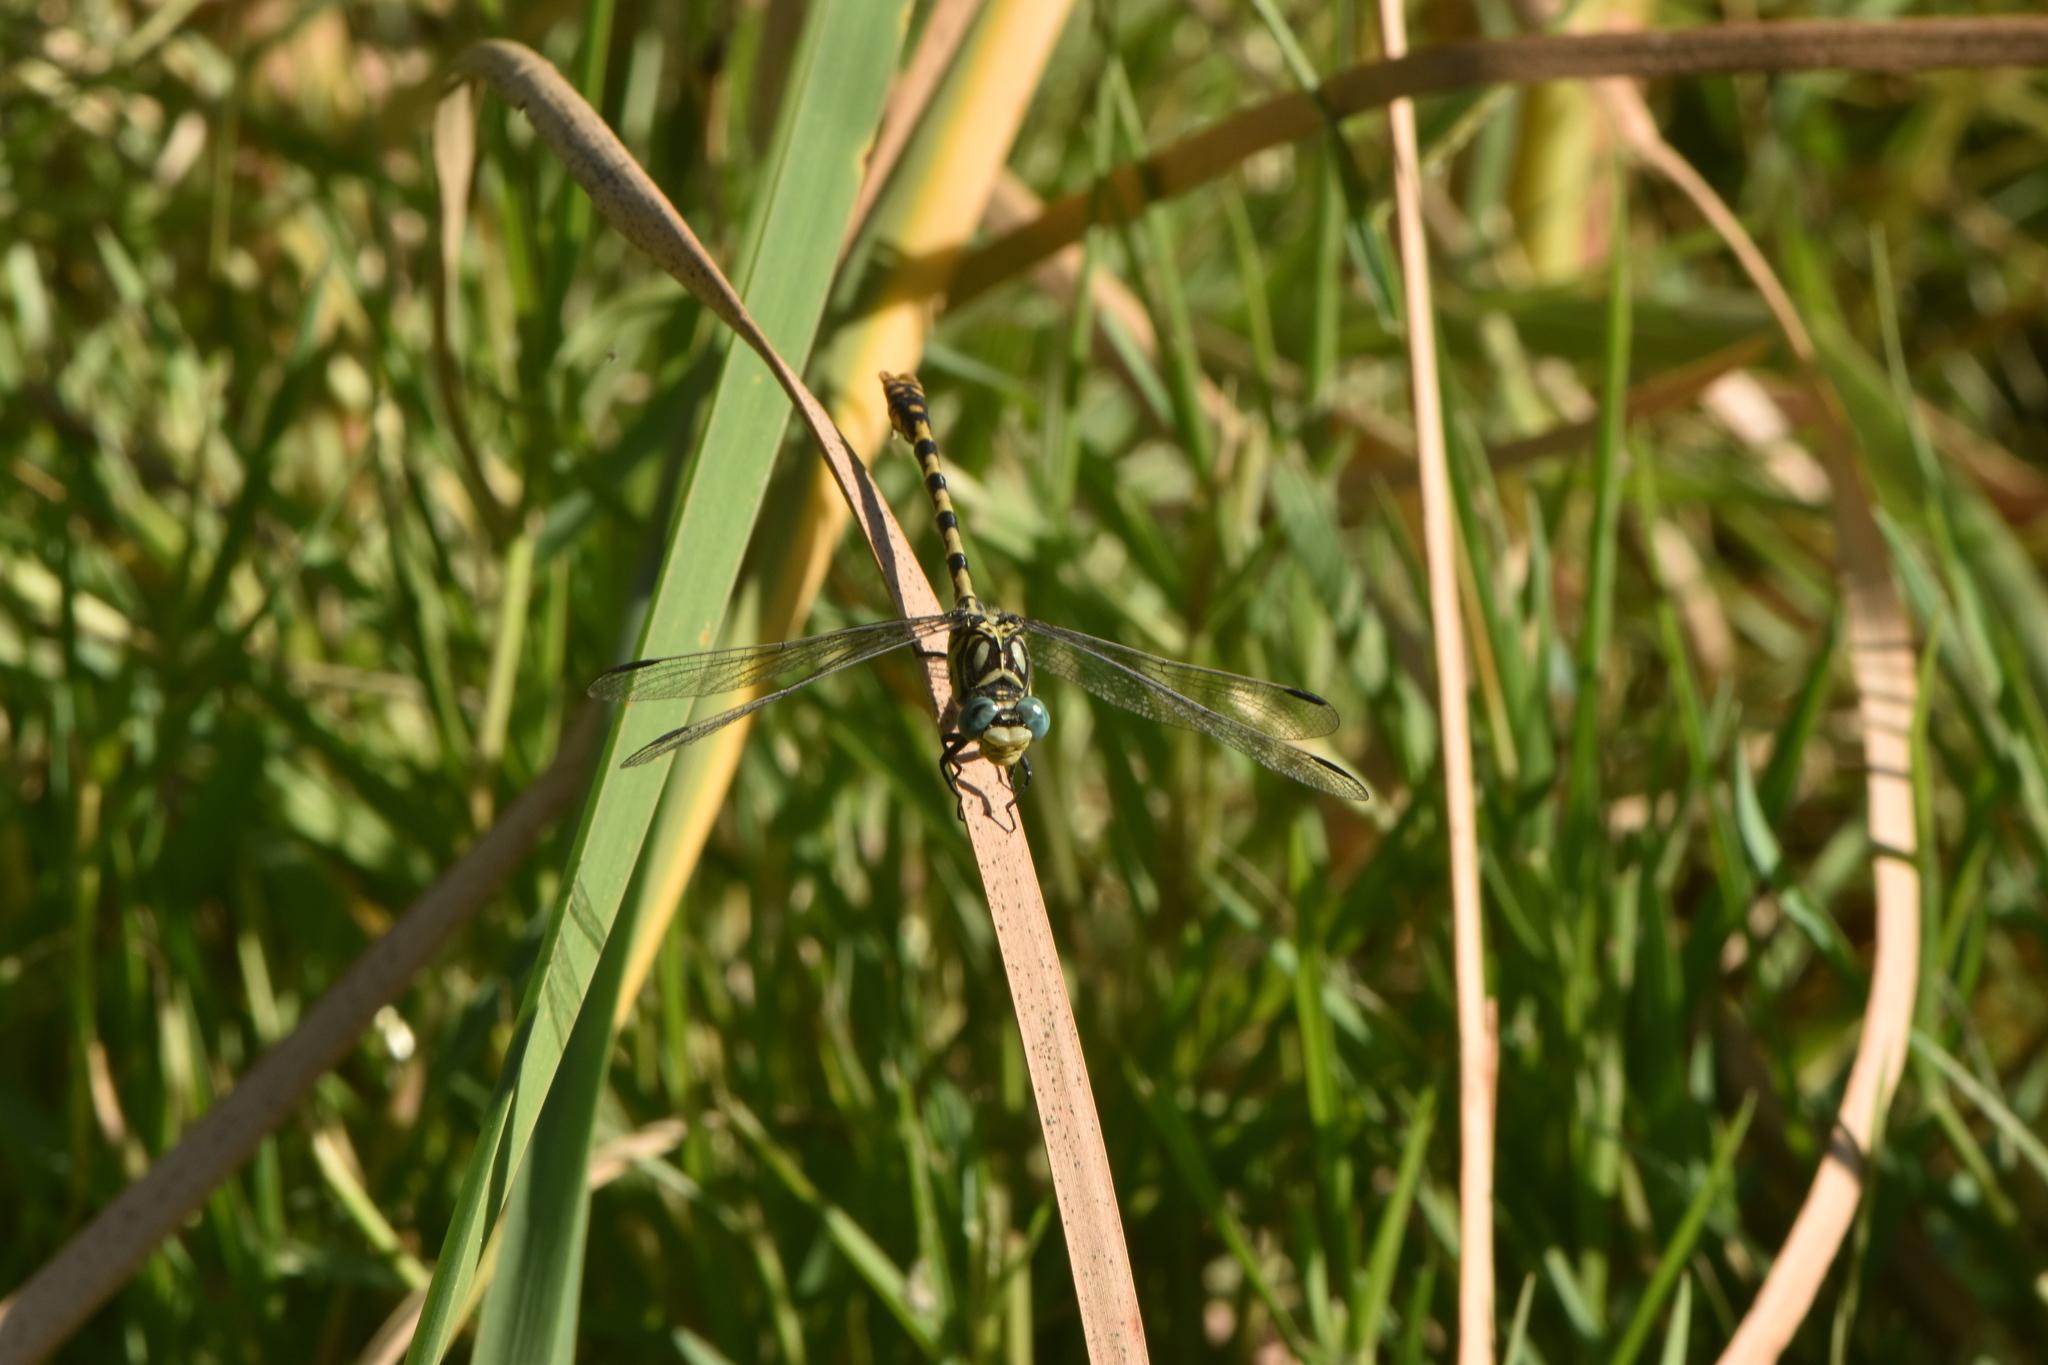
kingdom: Animalia
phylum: Arthropoda
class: Insecta
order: Odonata
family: Gomphidae
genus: Onychogomphus
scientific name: Onychogomphus forcipatus
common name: Small pincertail
